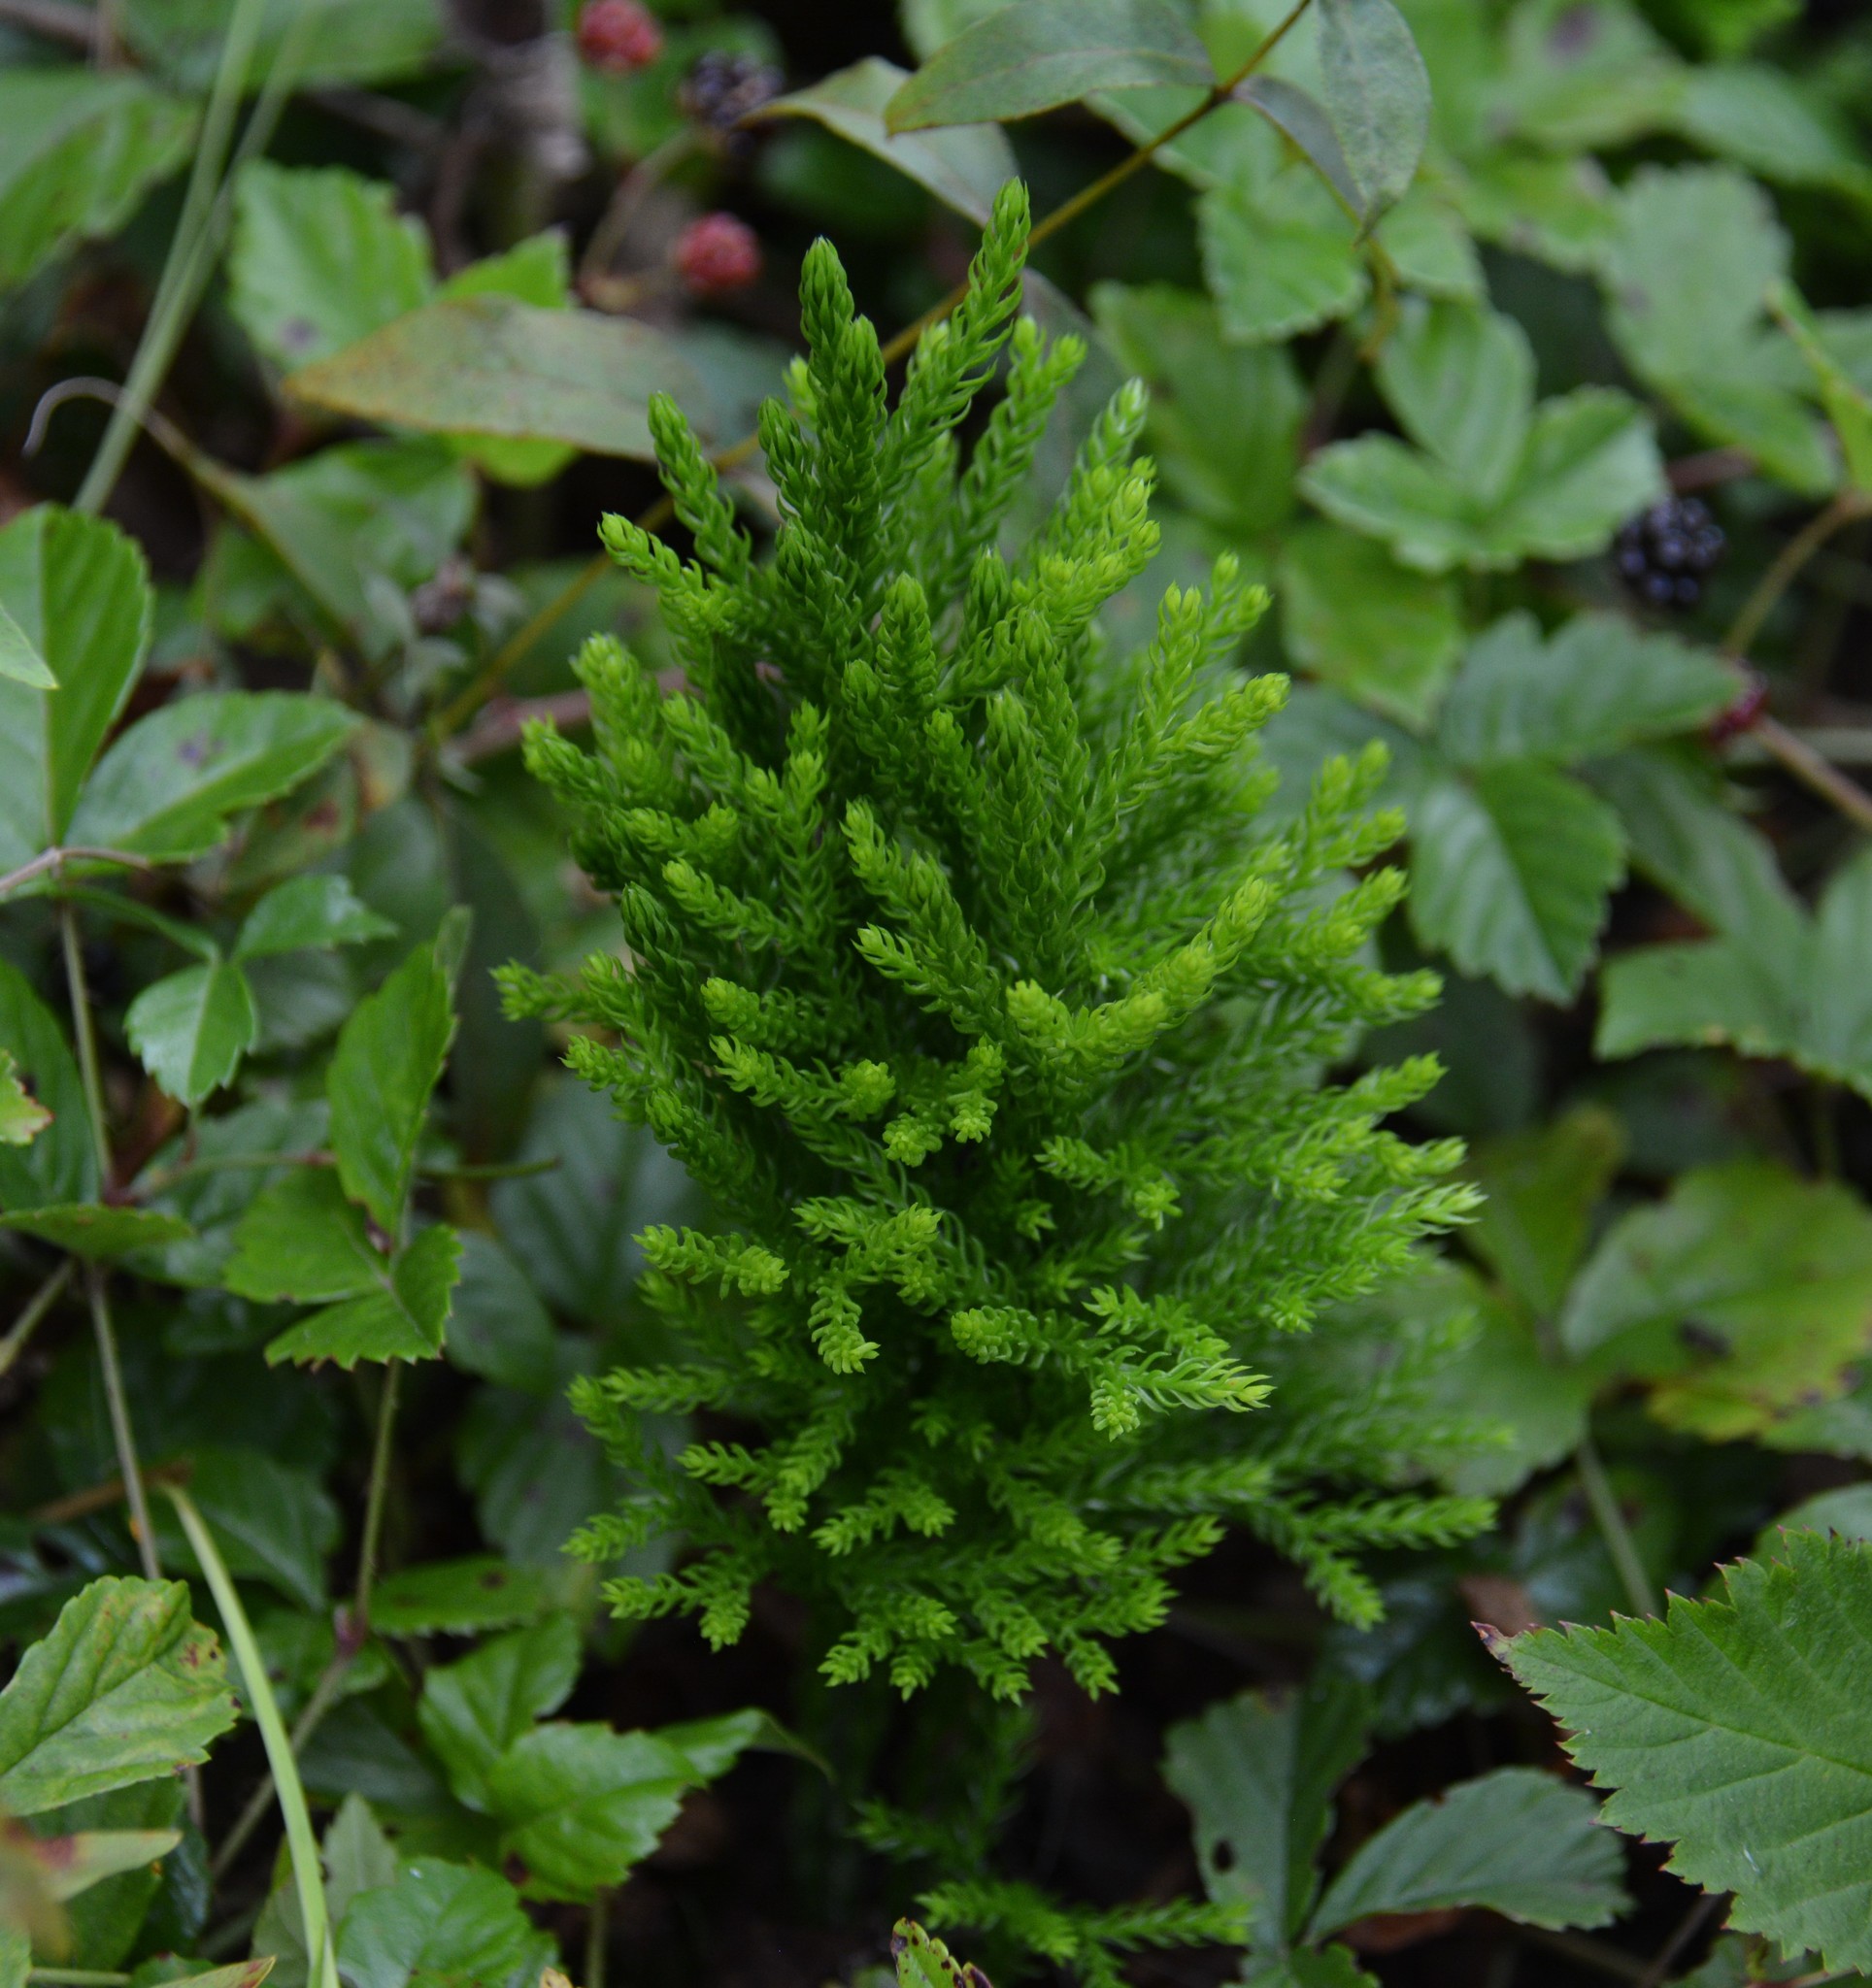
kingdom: Plantae
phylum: Tracheophyta
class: Lycopodiopsida
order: Lycopodiales
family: Lycopodiaceae
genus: Dendrolycopodium
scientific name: Dendrolycopodium hickeyi
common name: Hickey's clubmoss
